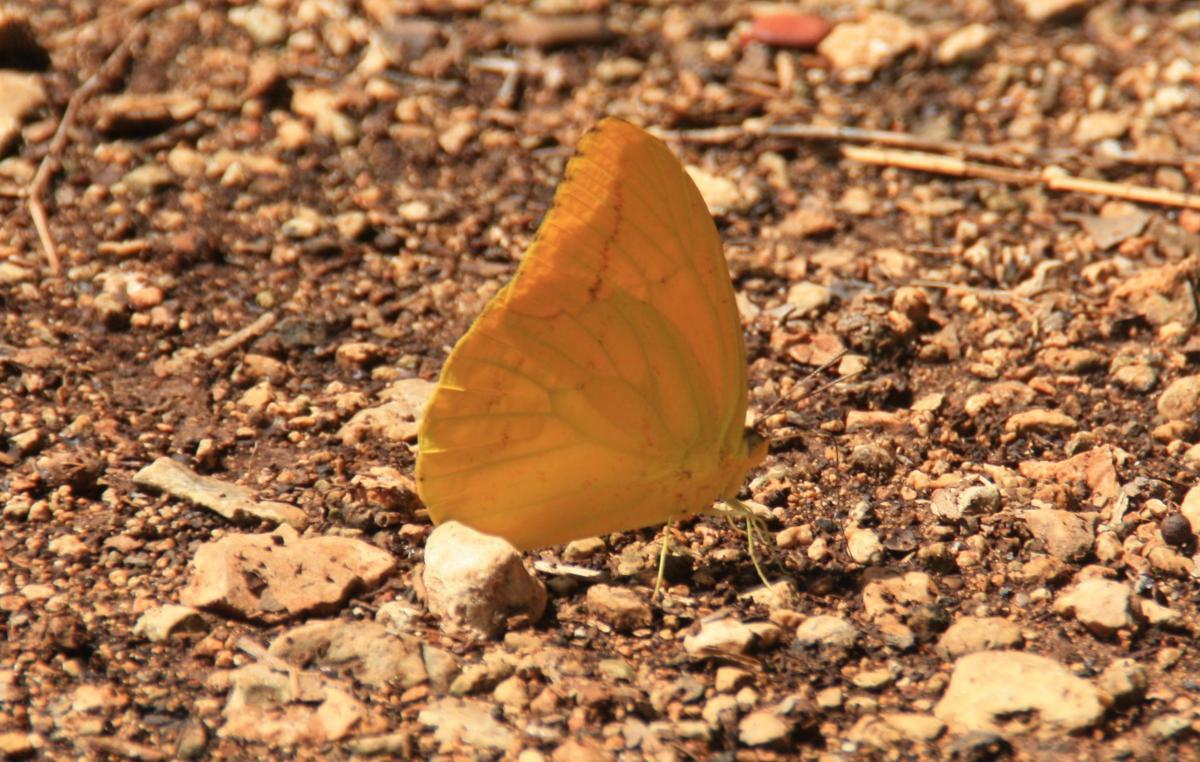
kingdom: Animalia
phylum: Arthropoda
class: Insecta
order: Lepidoptera
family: Pieridae
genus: Phoebis
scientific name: Phoebis agarithe
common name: Large orange sulphur
